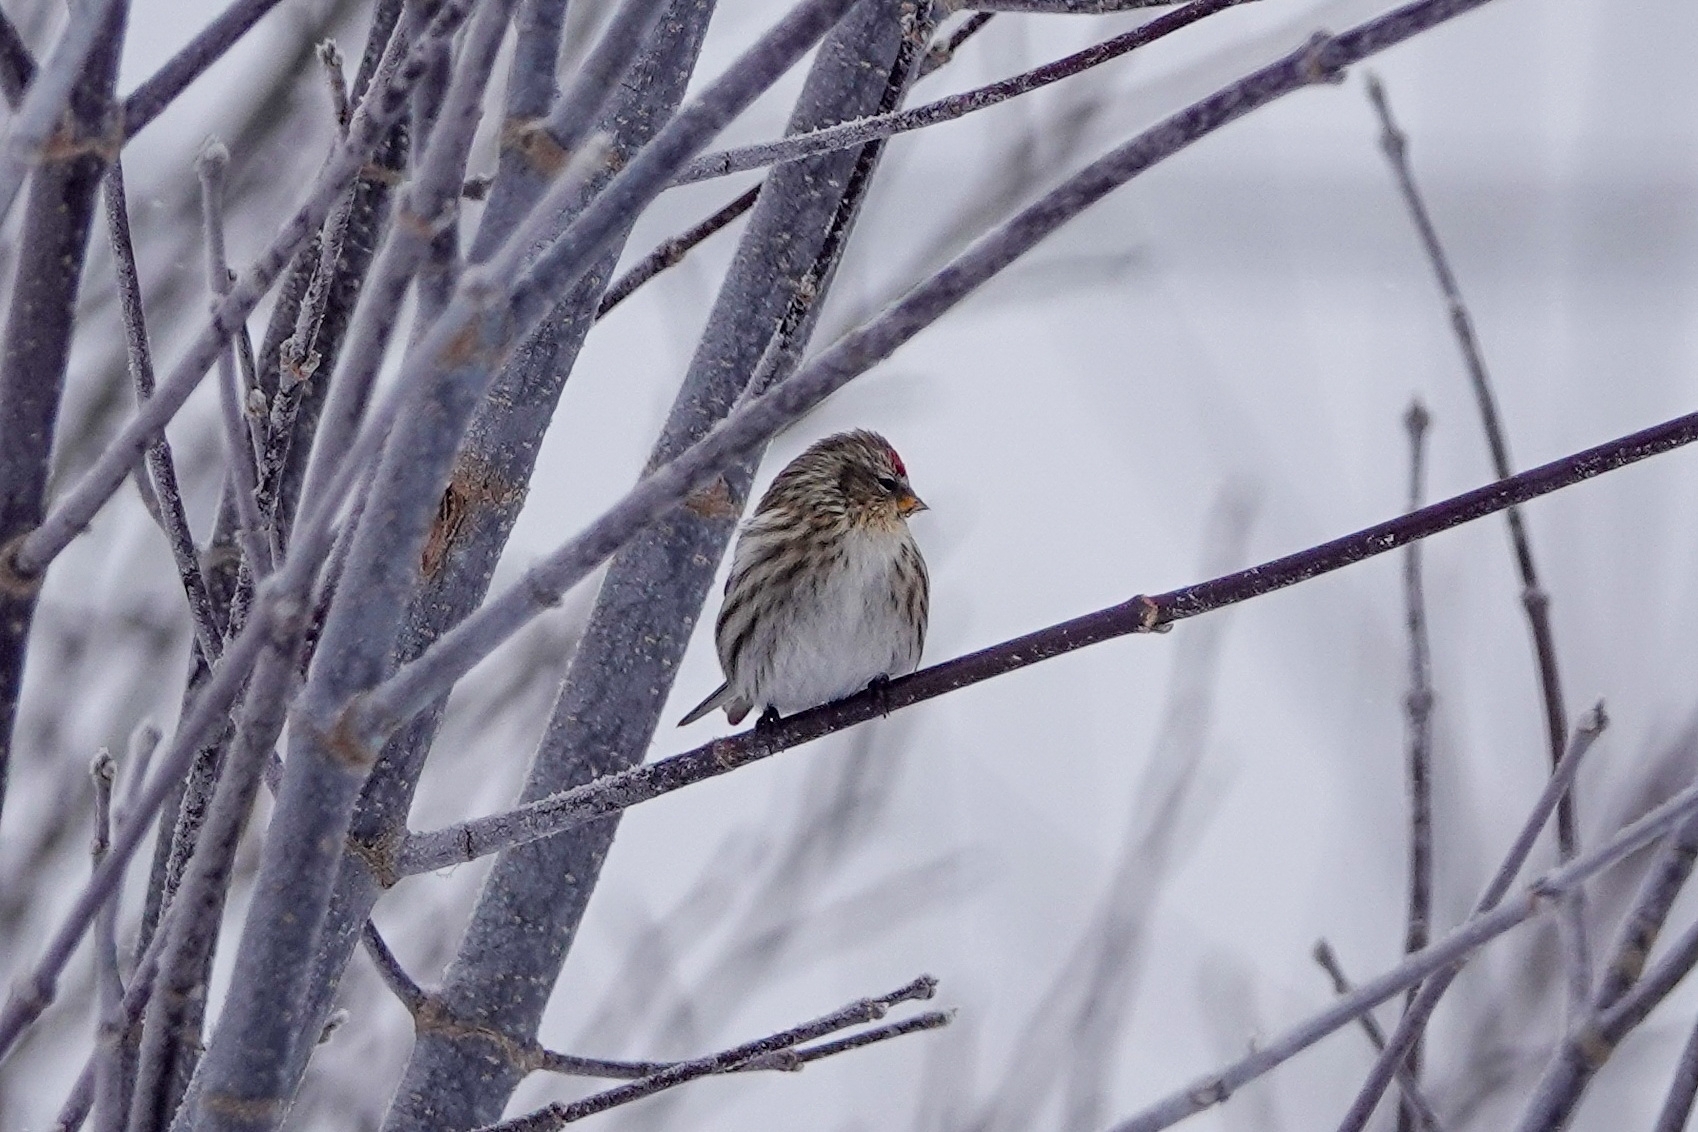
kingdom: Animalia
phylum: Chordata
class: Aves
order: Passeriformes
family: Fringillidae
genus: Acanthis
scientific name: Acanthis flammea
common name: Common redpoll
